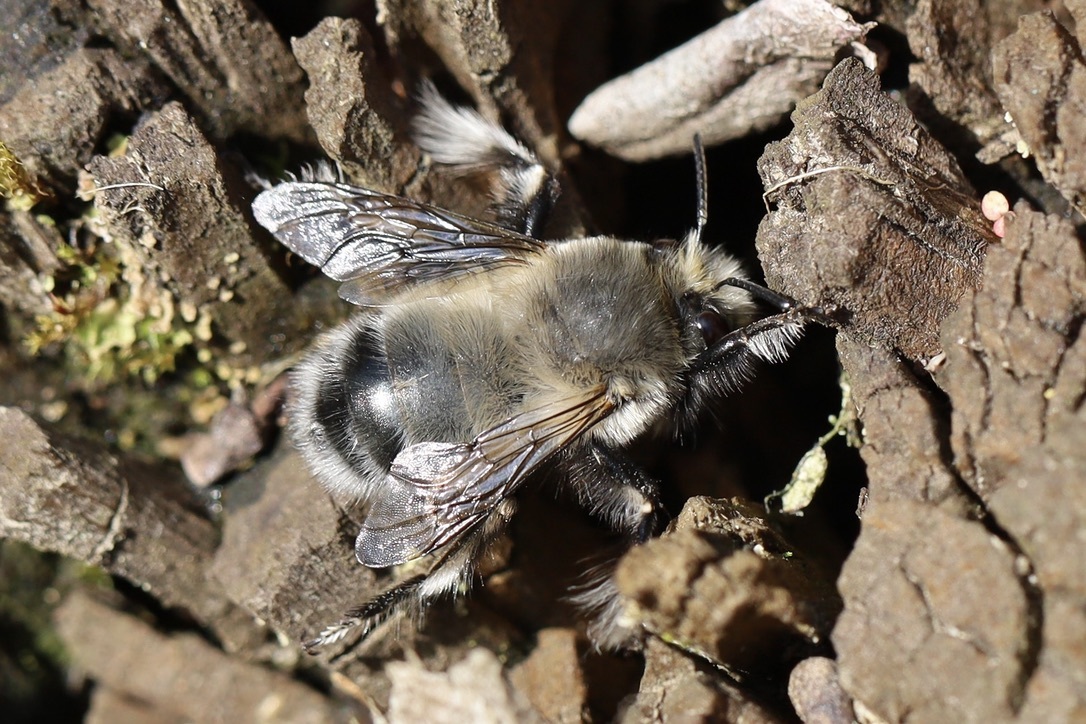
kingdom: Animalia
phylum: Arthropoda
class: Insecta
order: Hymenoptera
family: Apidae
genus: Anthophora
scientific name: Anthophora pacifica
